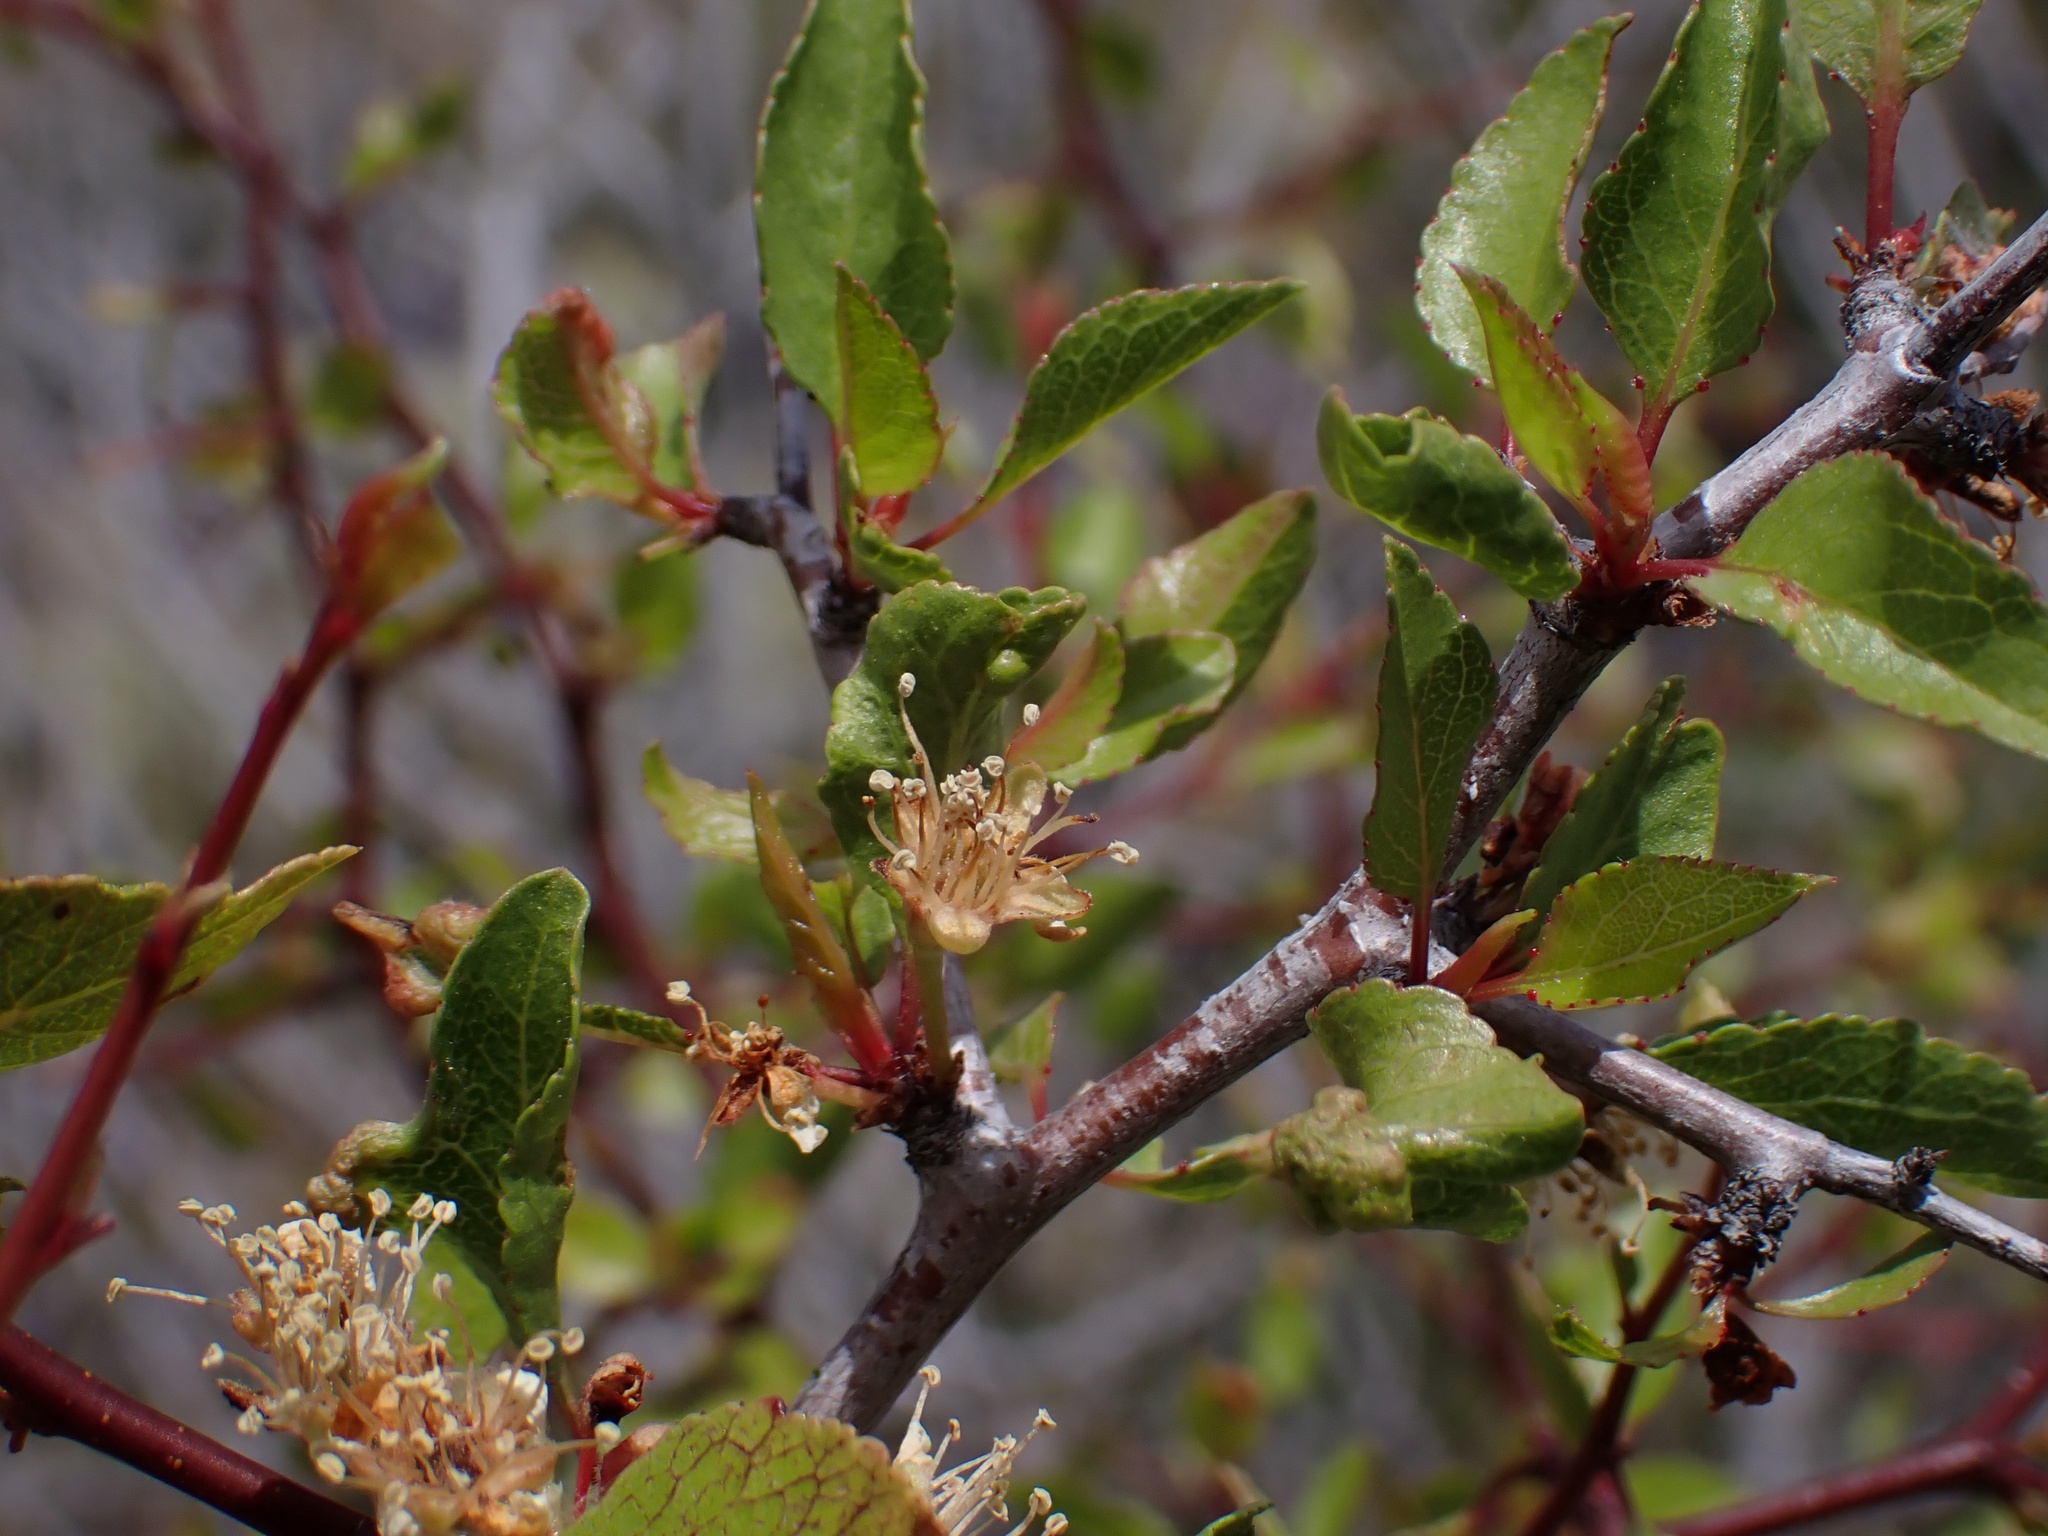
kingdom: Plantae
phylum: Tracheophyta
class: Magnoliopsida
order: Rosales
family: Rosaceae
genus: Prunus
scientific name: Prunus fremontii
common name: Desert apricot
